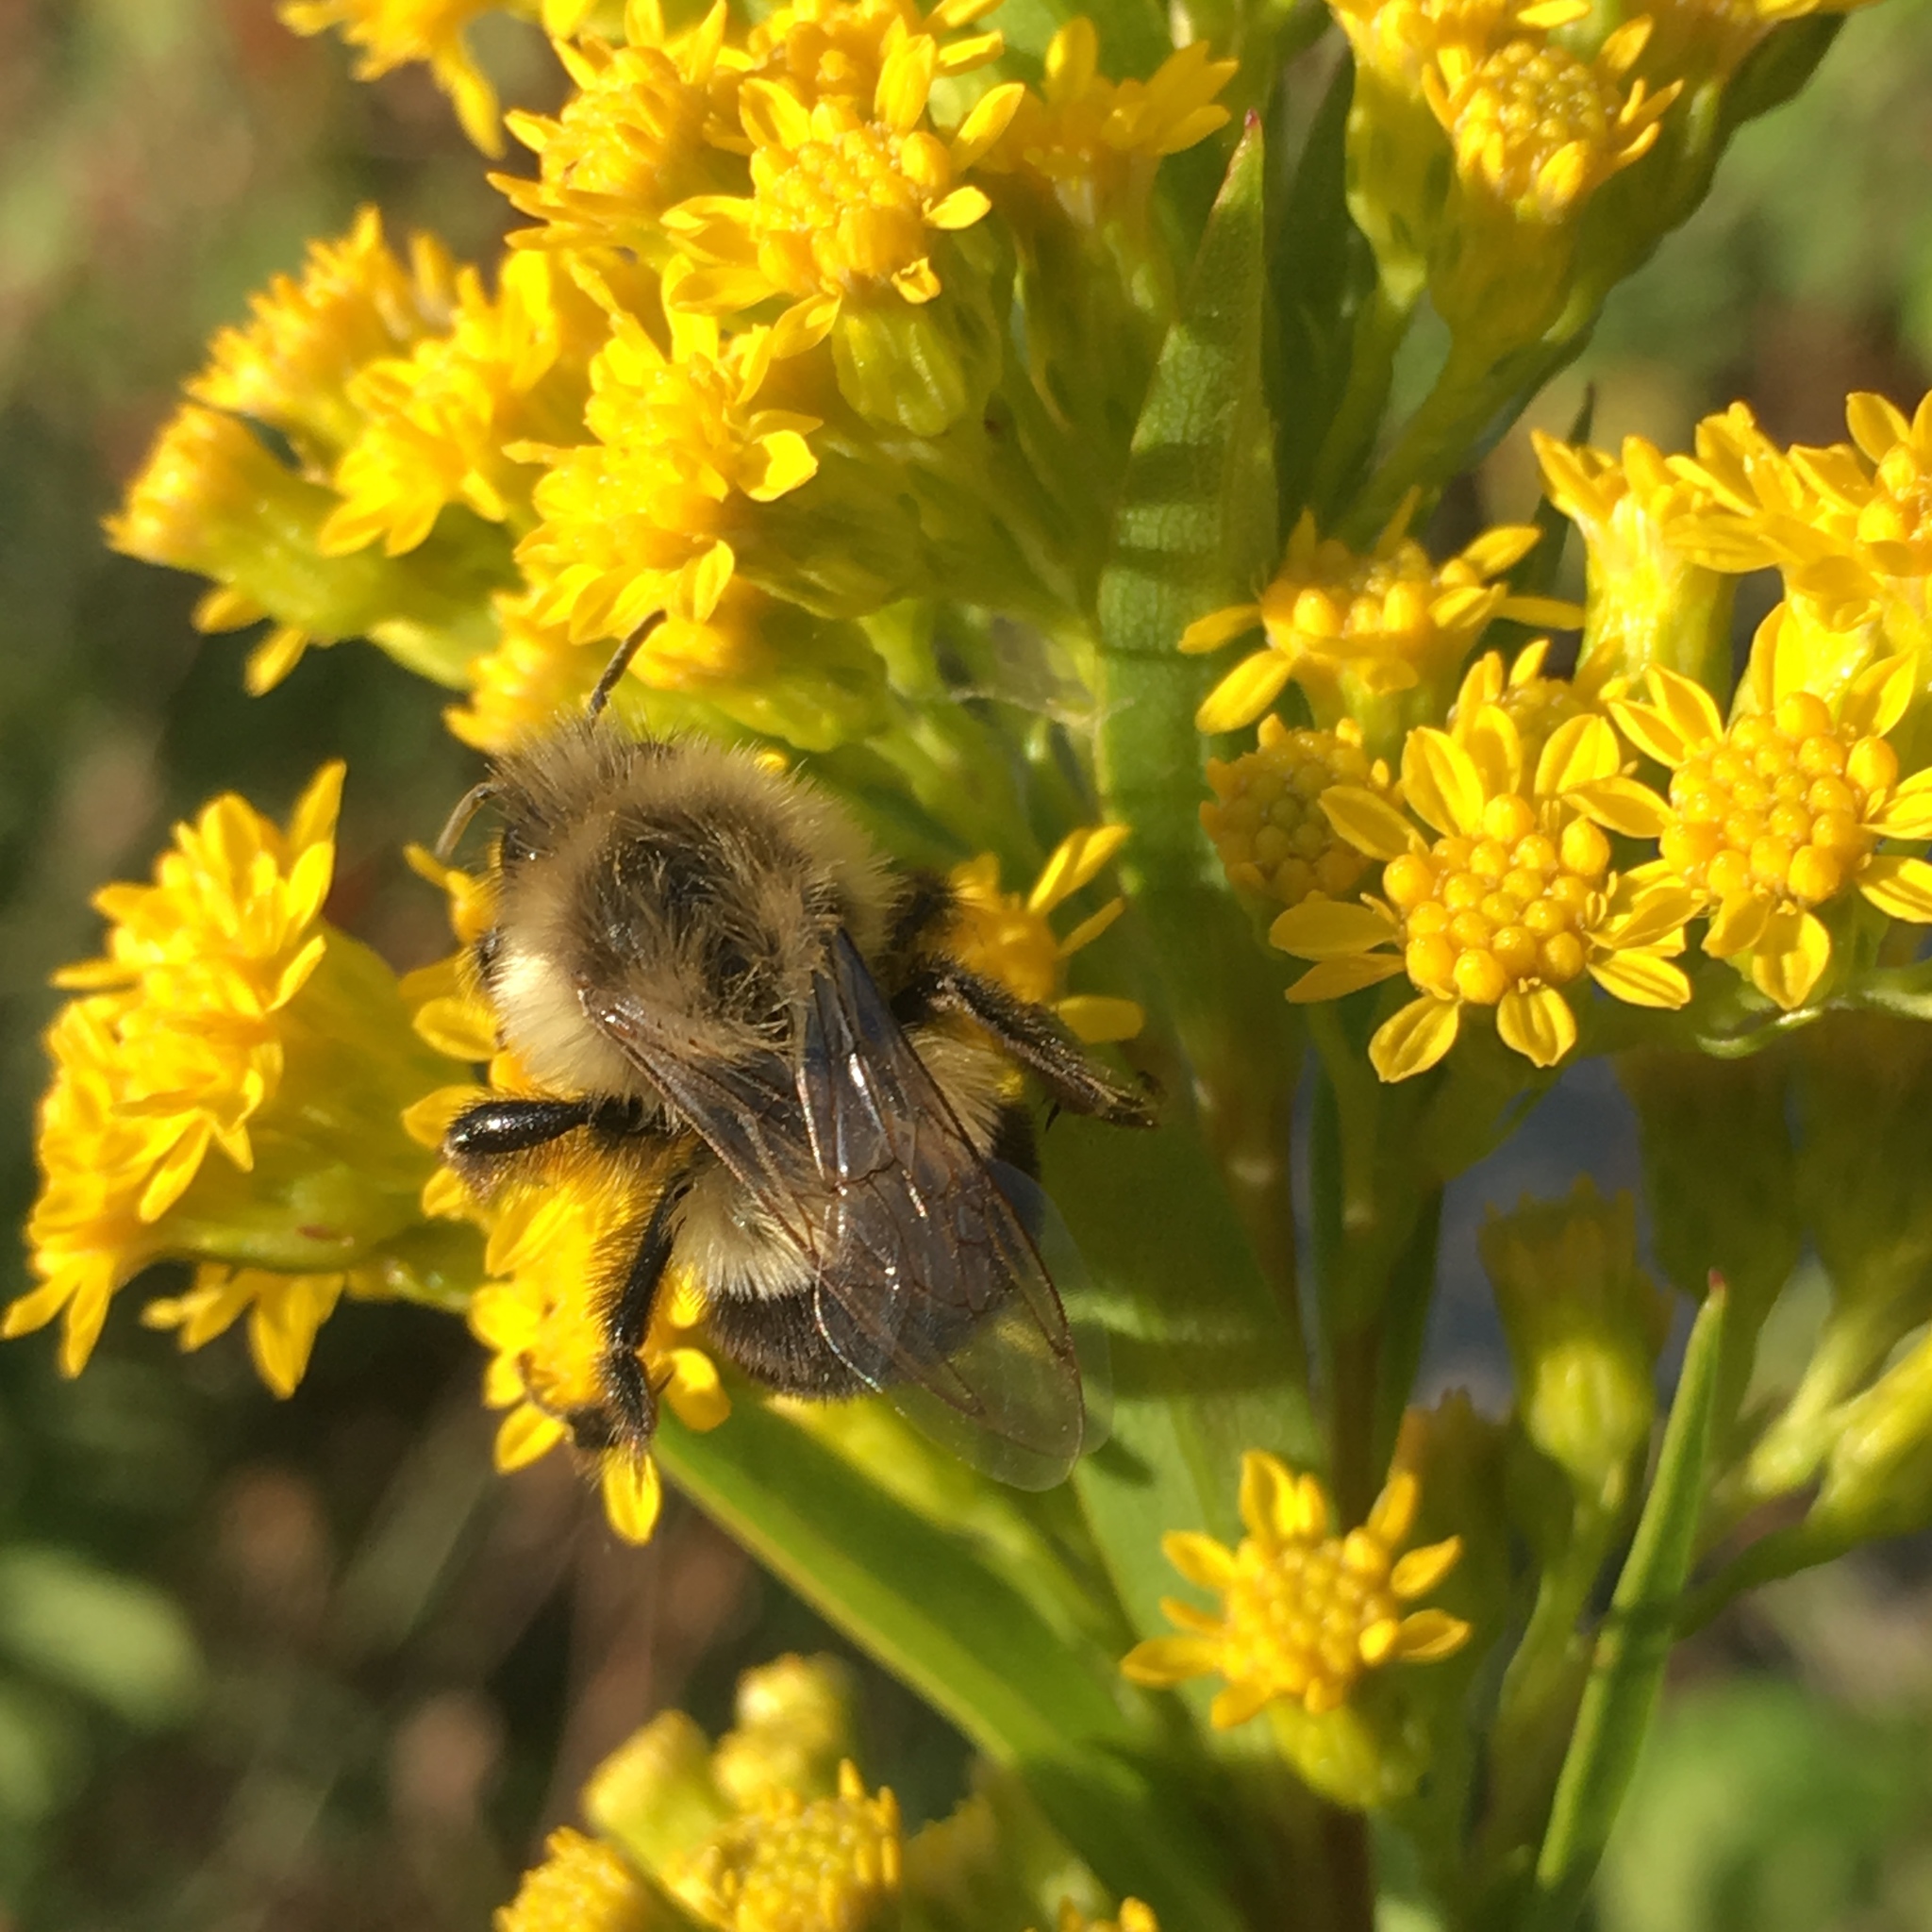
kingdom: Animalia
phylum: Arthropoda
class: Insecta
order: Hymenoptera
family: Apidae
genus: Bombus
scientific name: Bombus impatiens
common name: Common eastern bumble bee
